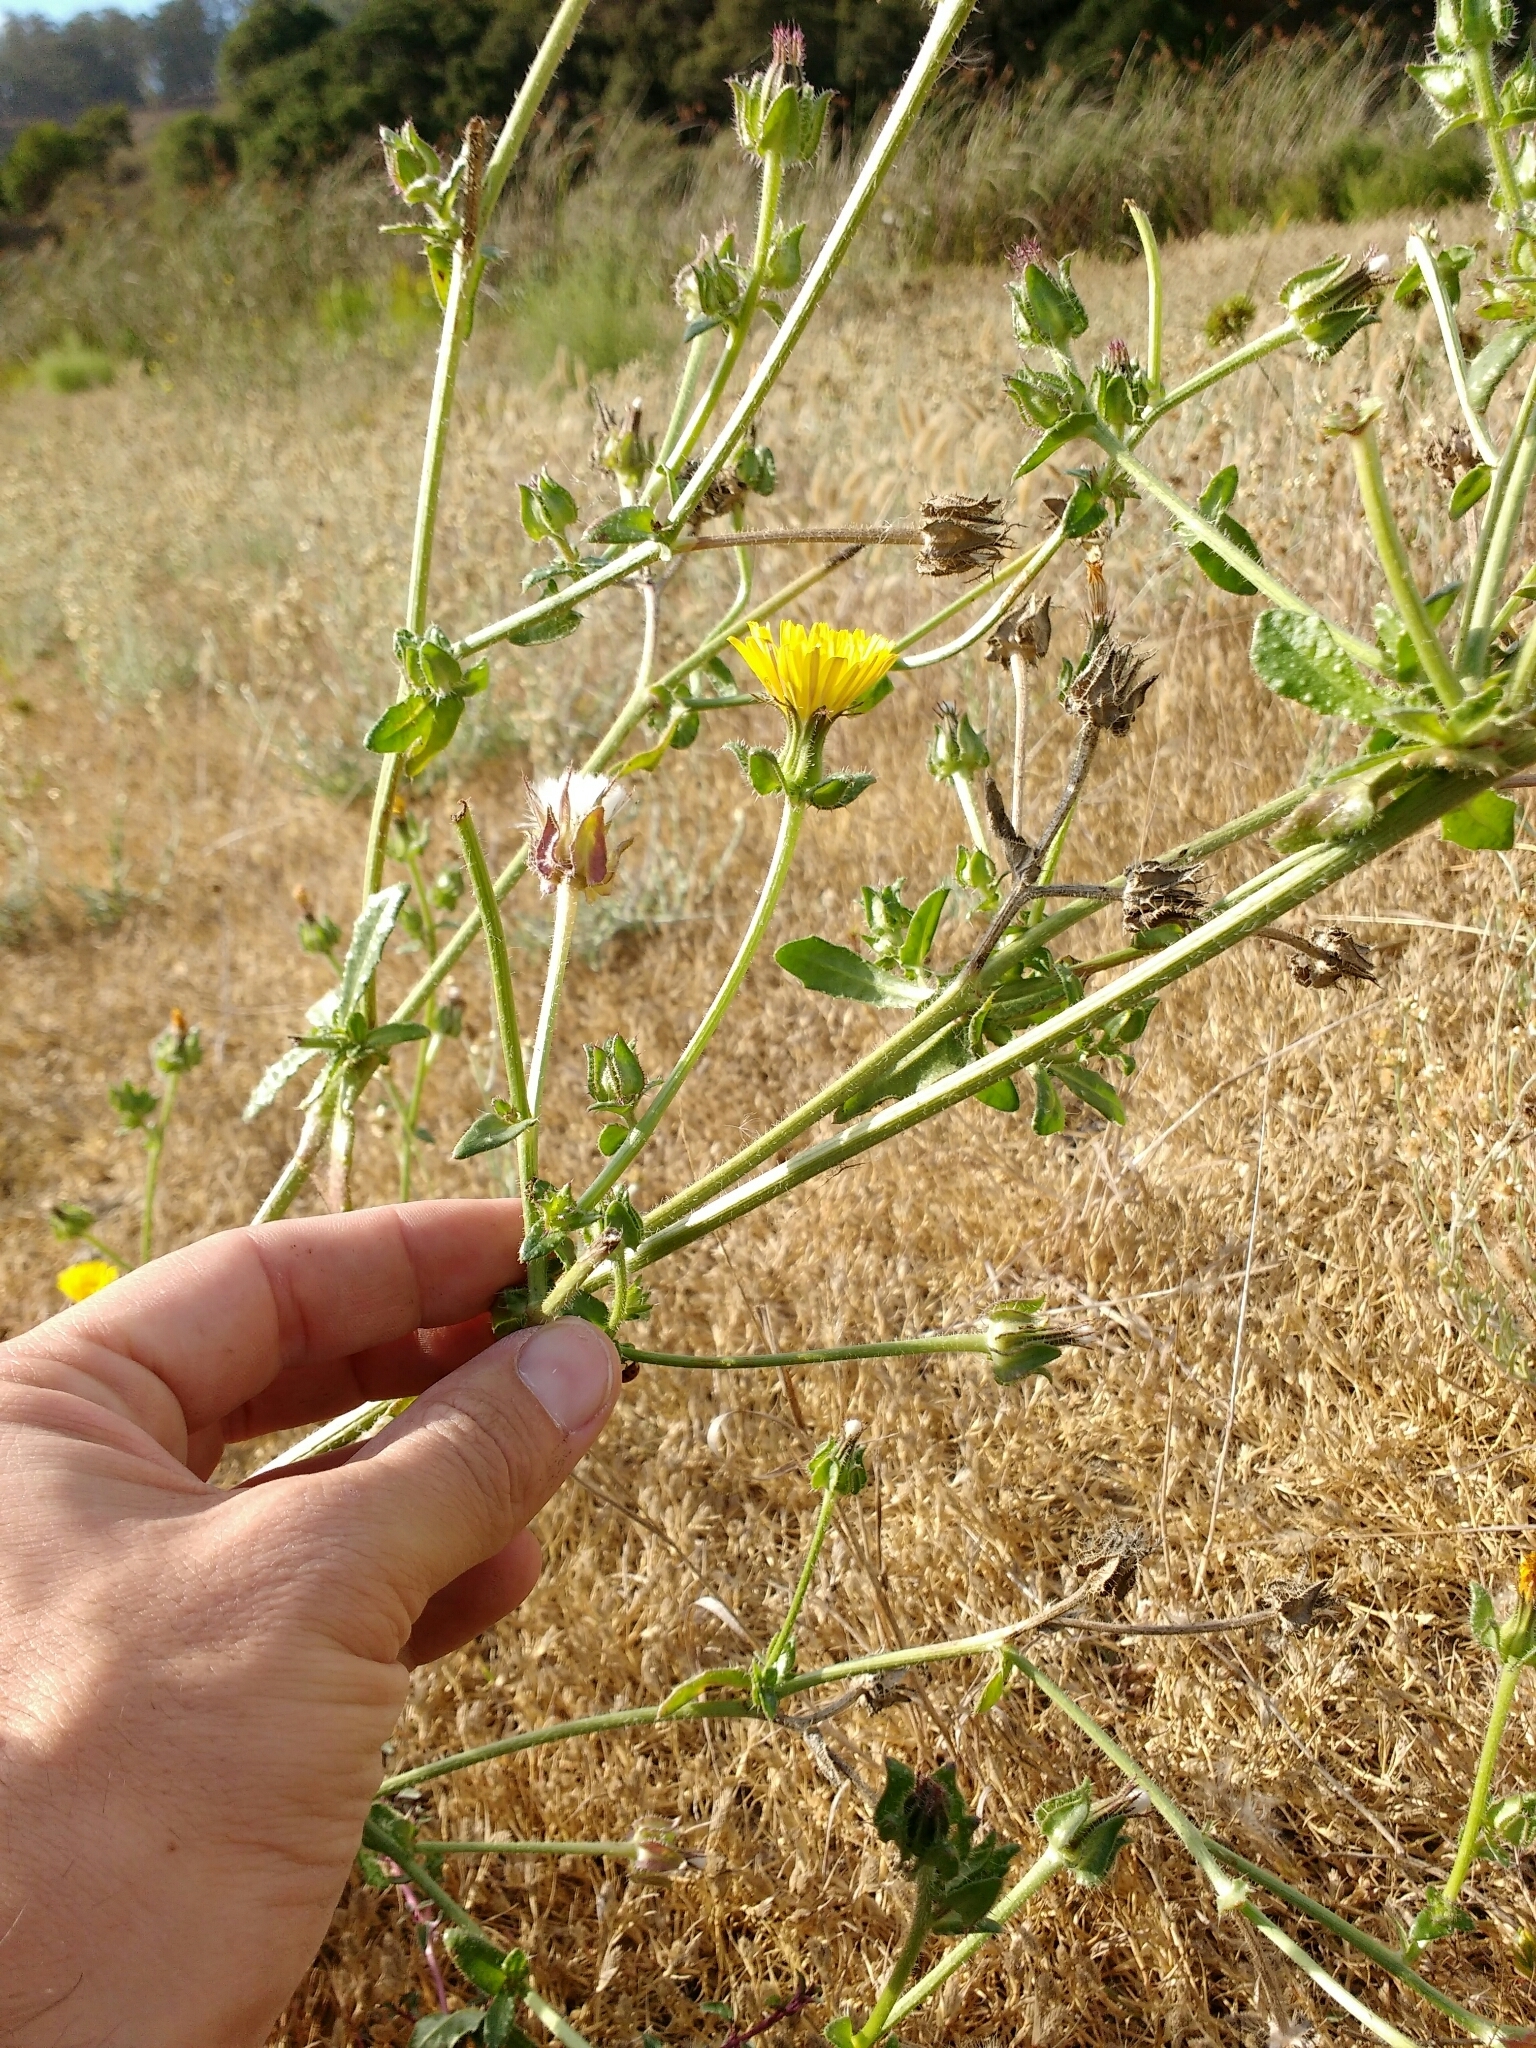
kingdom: Plantae
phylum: Tracheophyta
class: Magnoliopsida
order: Asterales
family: Asteraceae
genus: Helminthotheca
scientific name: Helminthotheca echioides
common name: Ox-tongue
